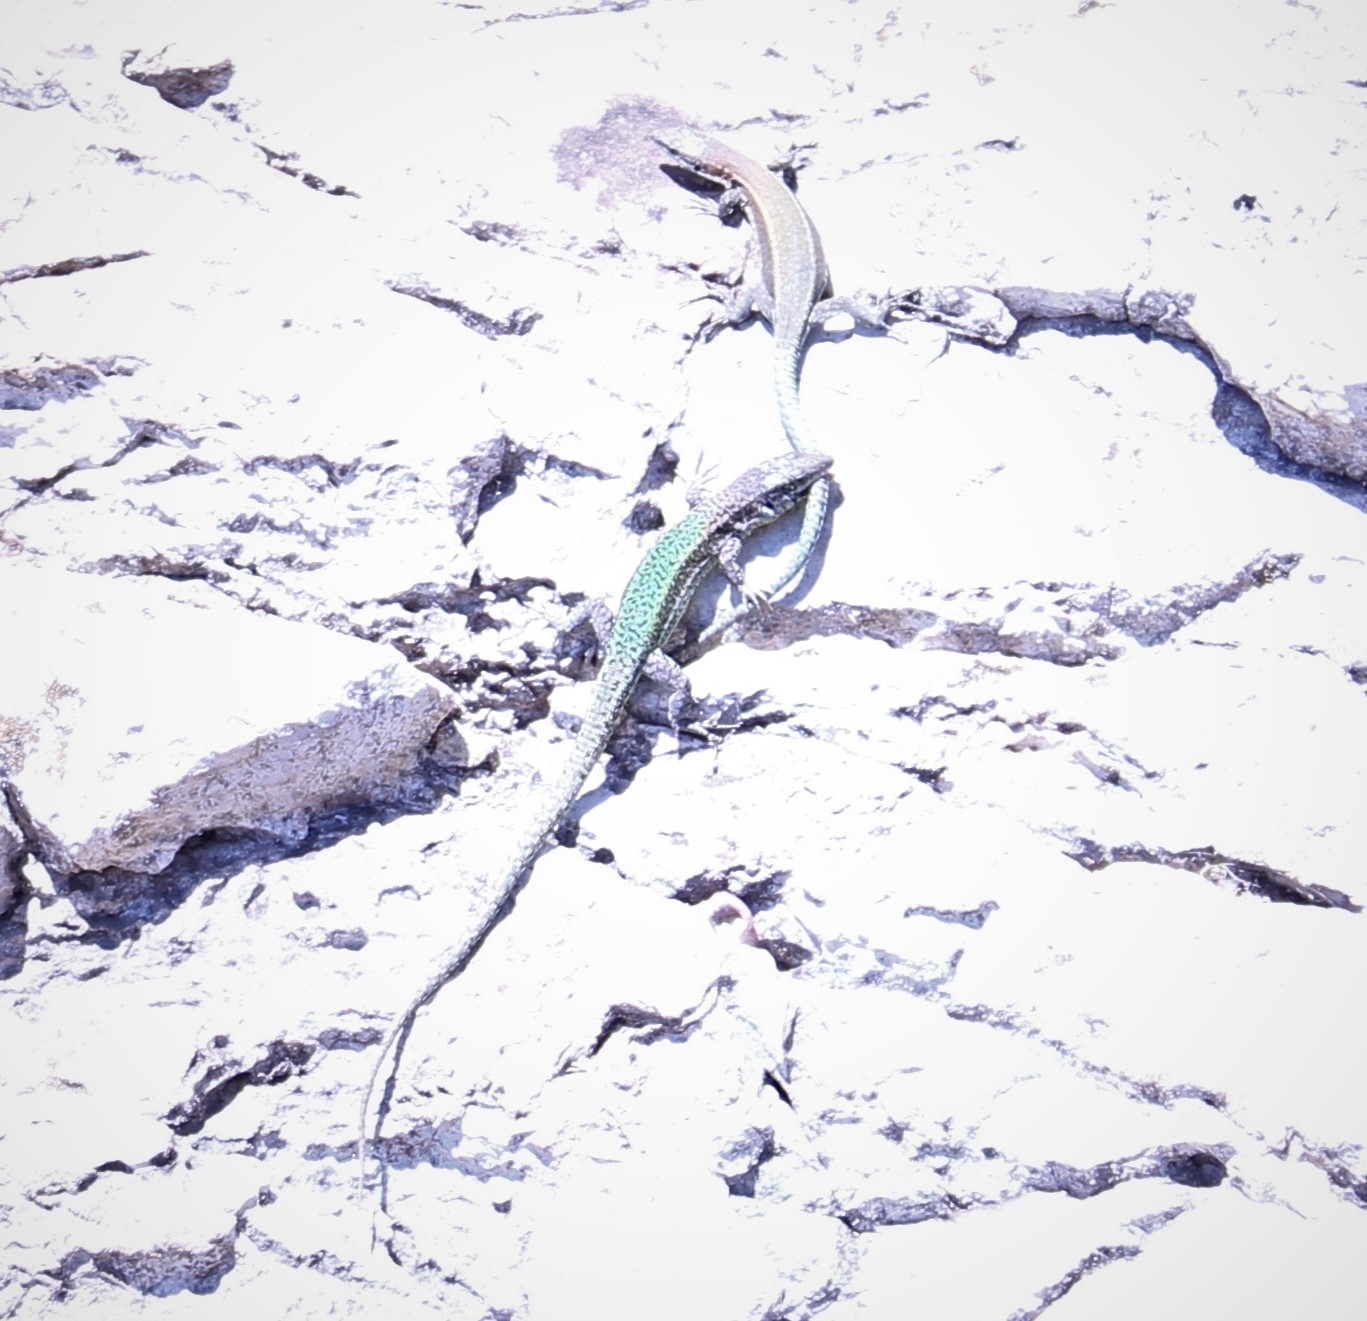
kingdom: Animalia
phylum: Chordata
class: Squamata
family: Lacertidae
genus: Podarcis
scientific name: Podarcis vaucheri
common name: Vaucher's wall lizard
